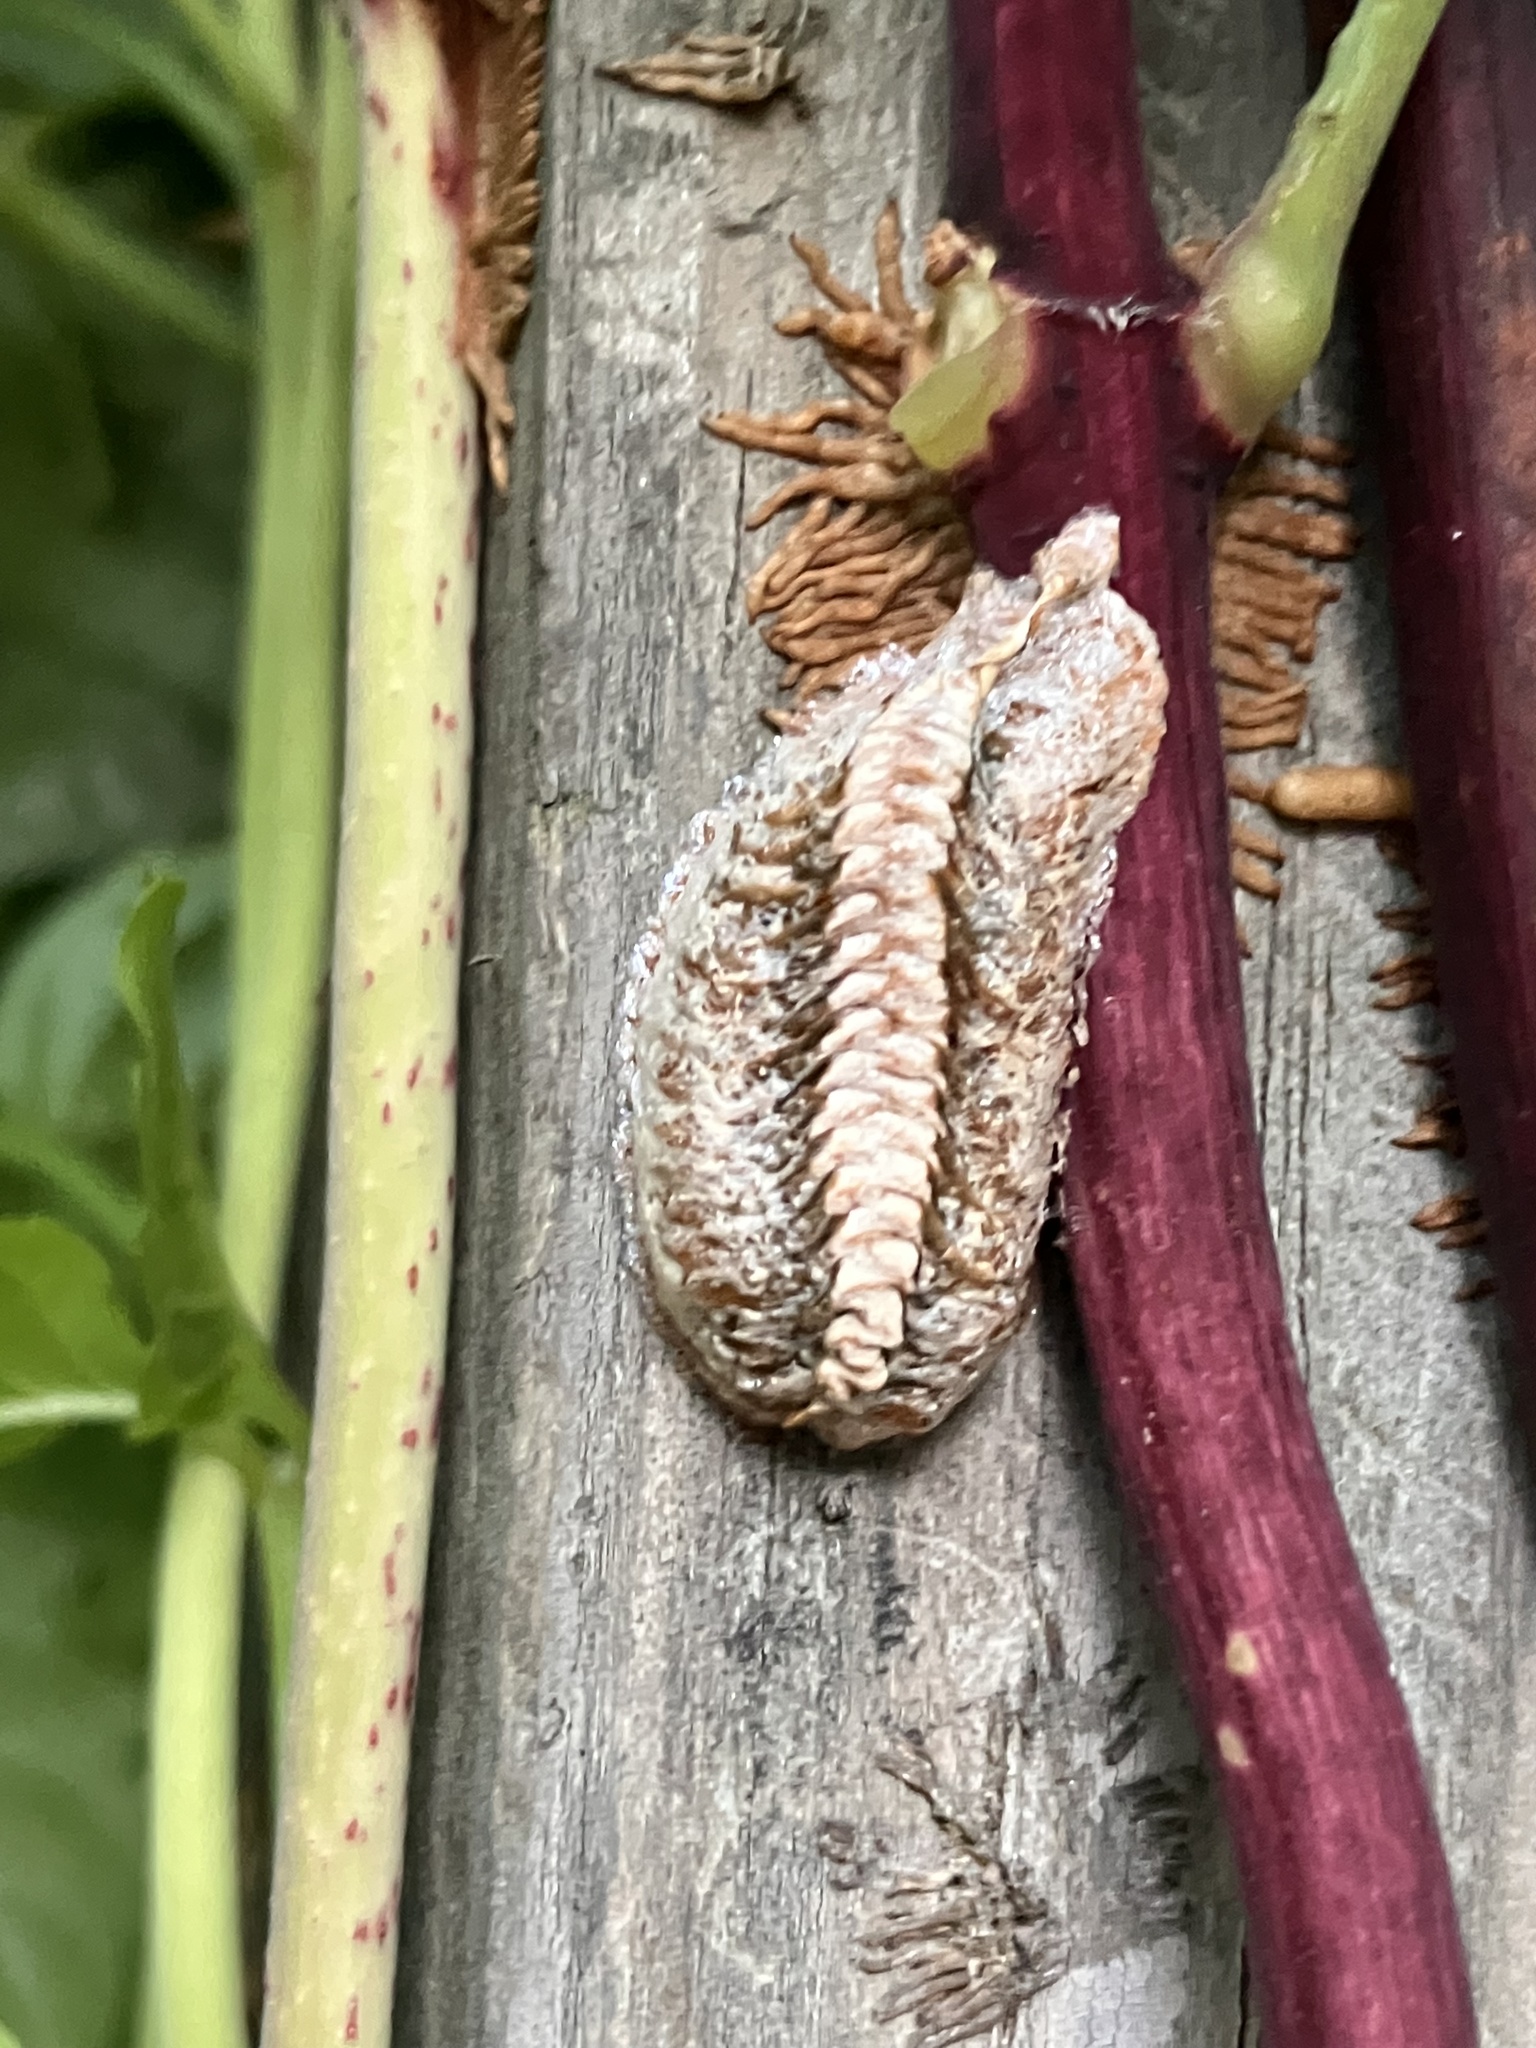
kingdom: Animalia
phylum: Arthropoda
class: Insecta
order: Mantodea
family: Mantidae
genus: Stagmomantis
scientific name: Stagmomantis carolina
